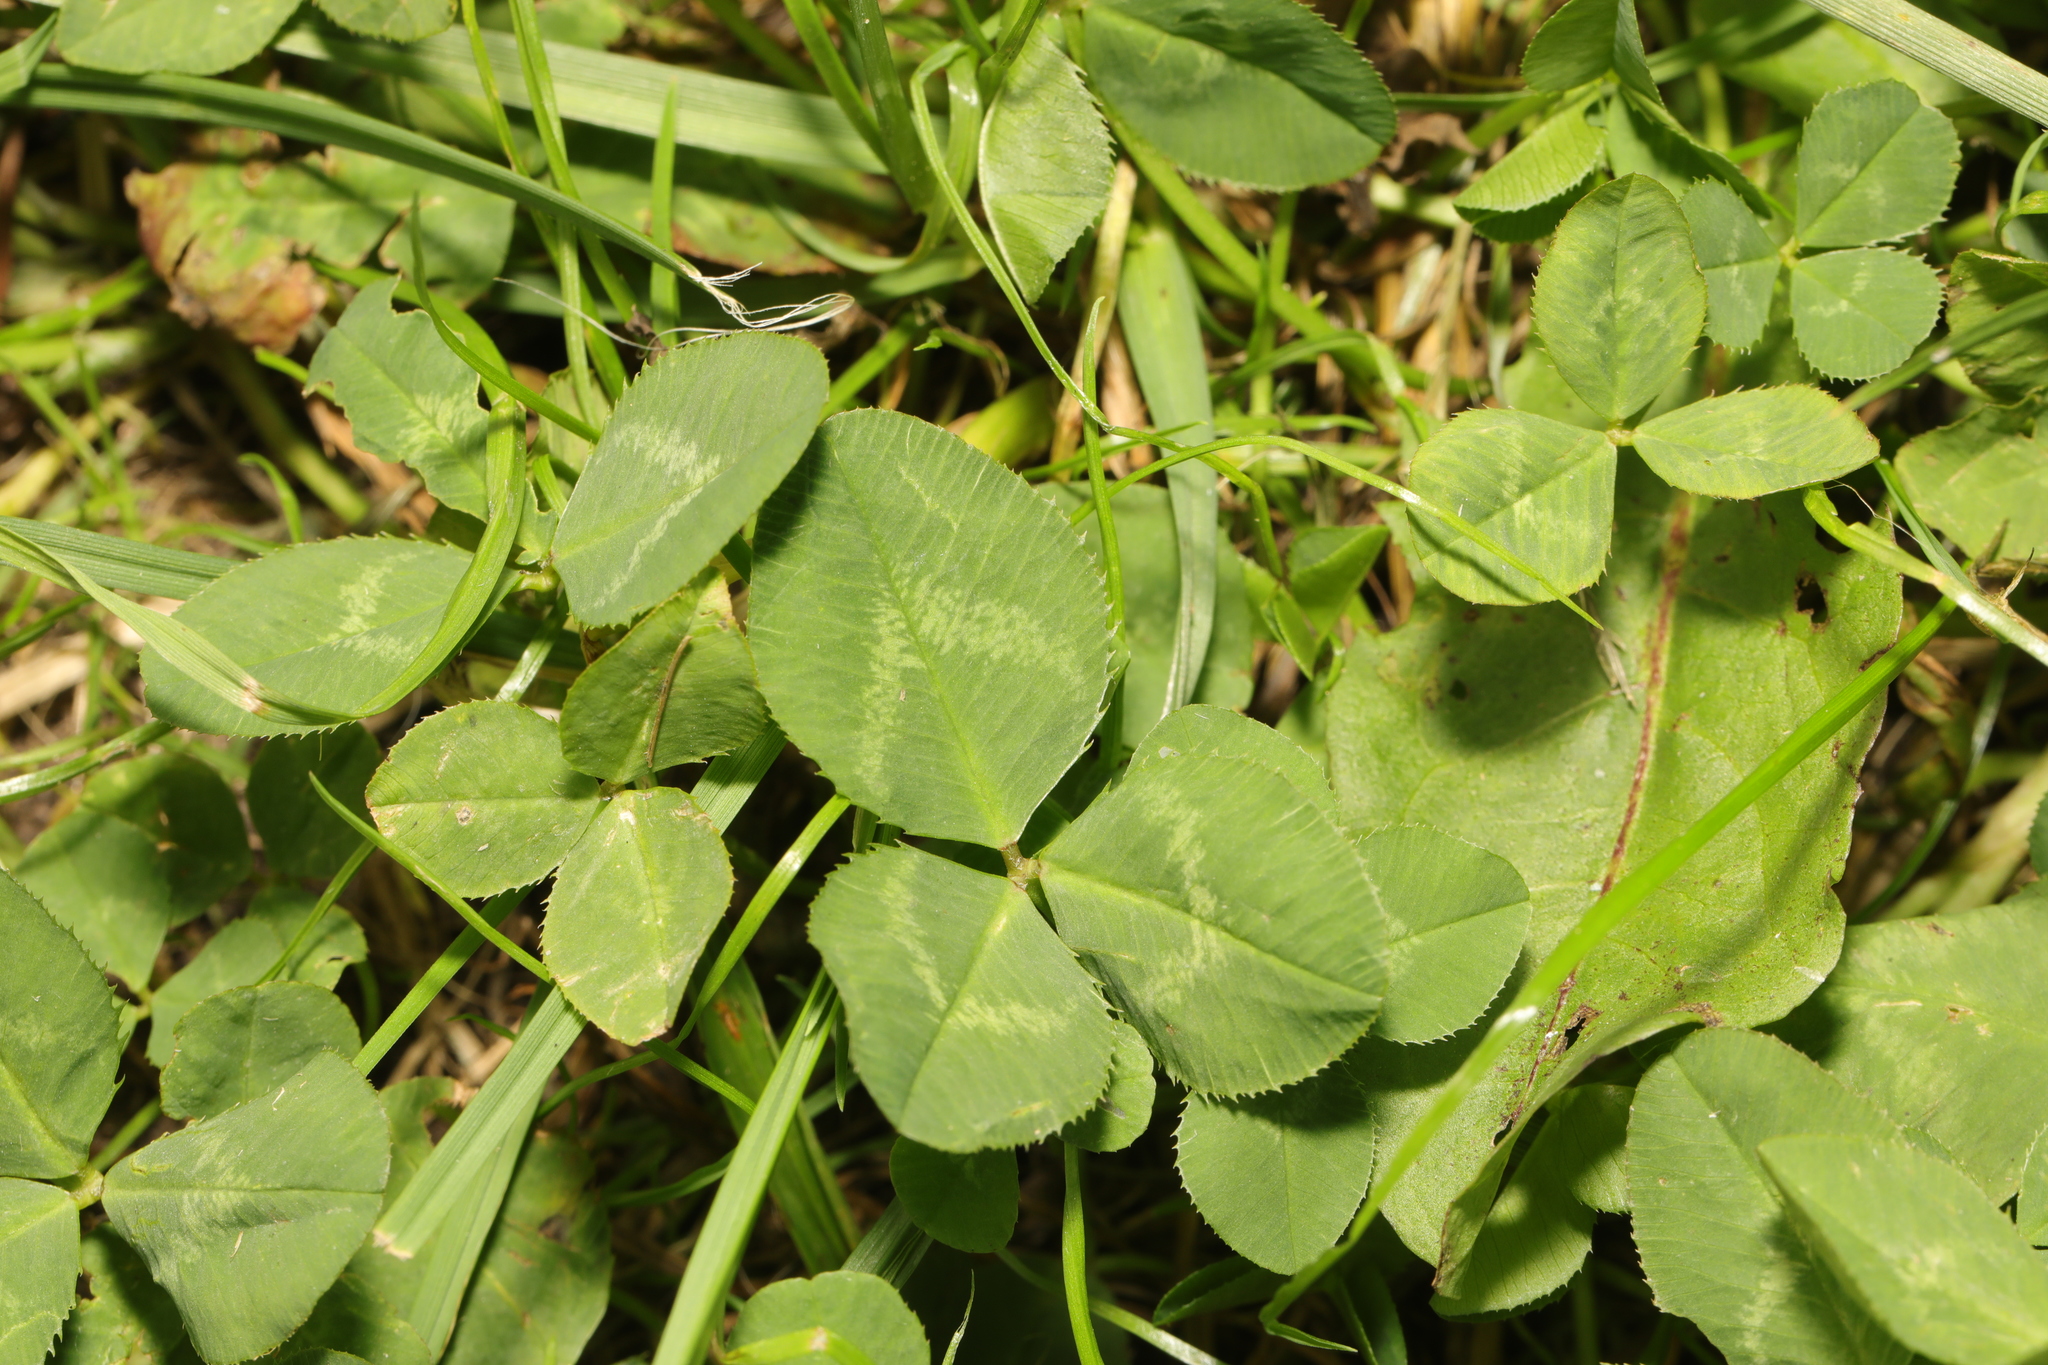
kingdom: Plantae
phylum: Tracheophyta
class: Magnoliopsida
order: Fabales
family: Fabaceae
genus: Trifolium
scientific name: Trifolium repens
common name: White clover
